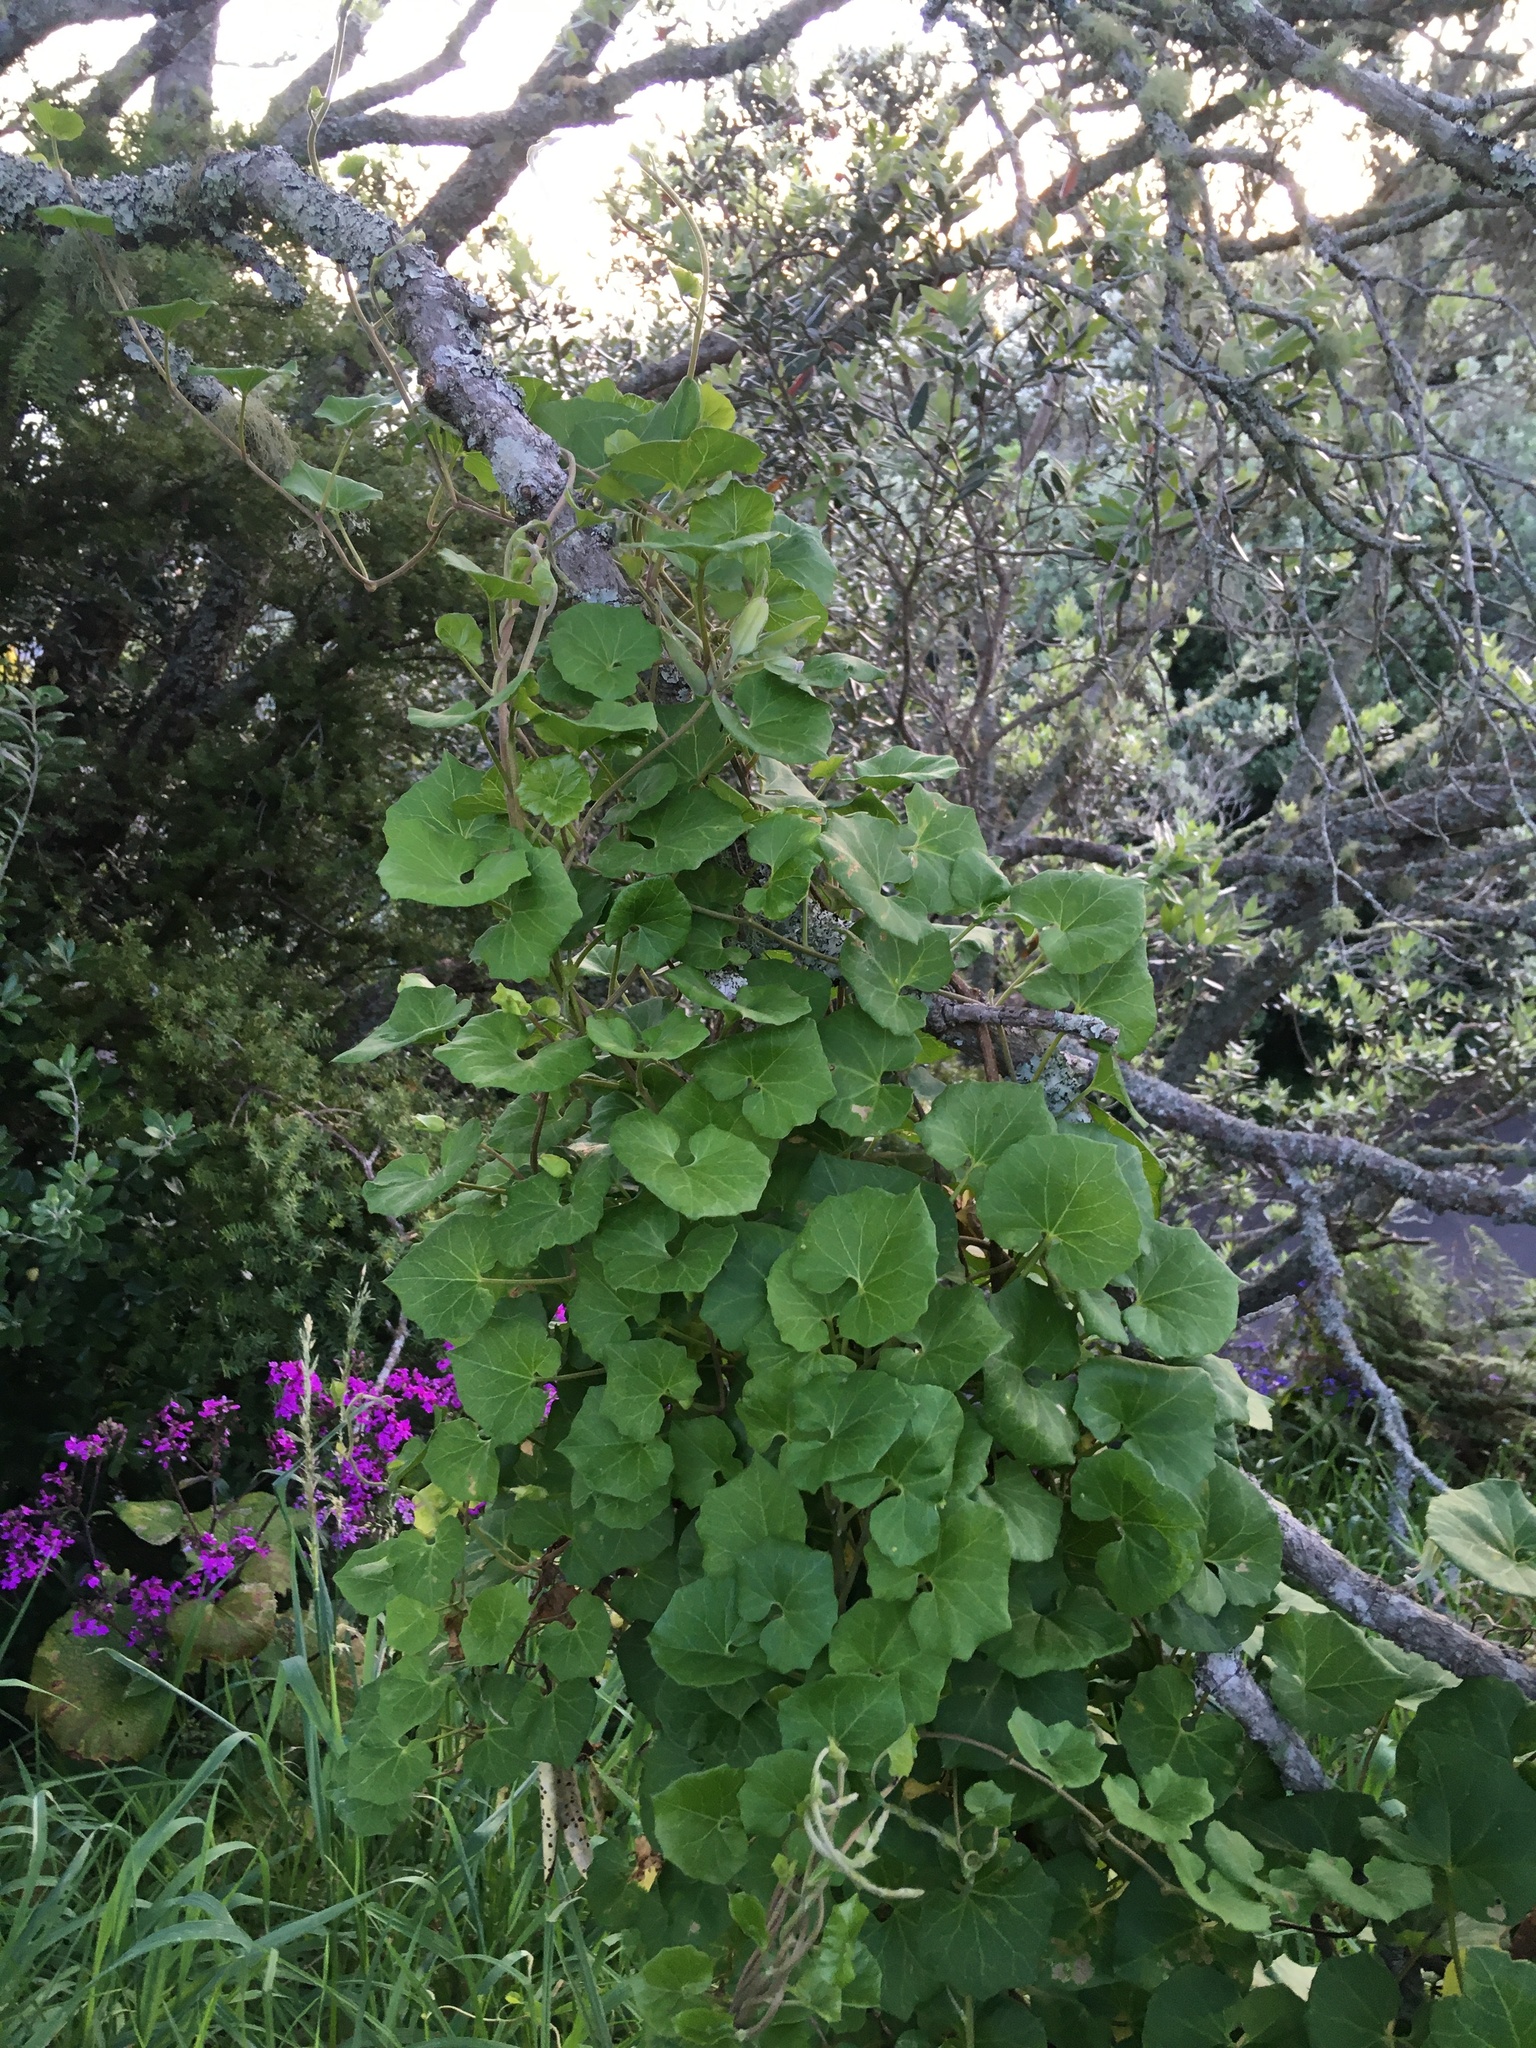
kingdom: Plantae
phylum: Tracheophyta
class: Magnoliopsida
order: Solanales
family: Convolvulaceae
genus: Calystegia
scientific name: Calystegia
